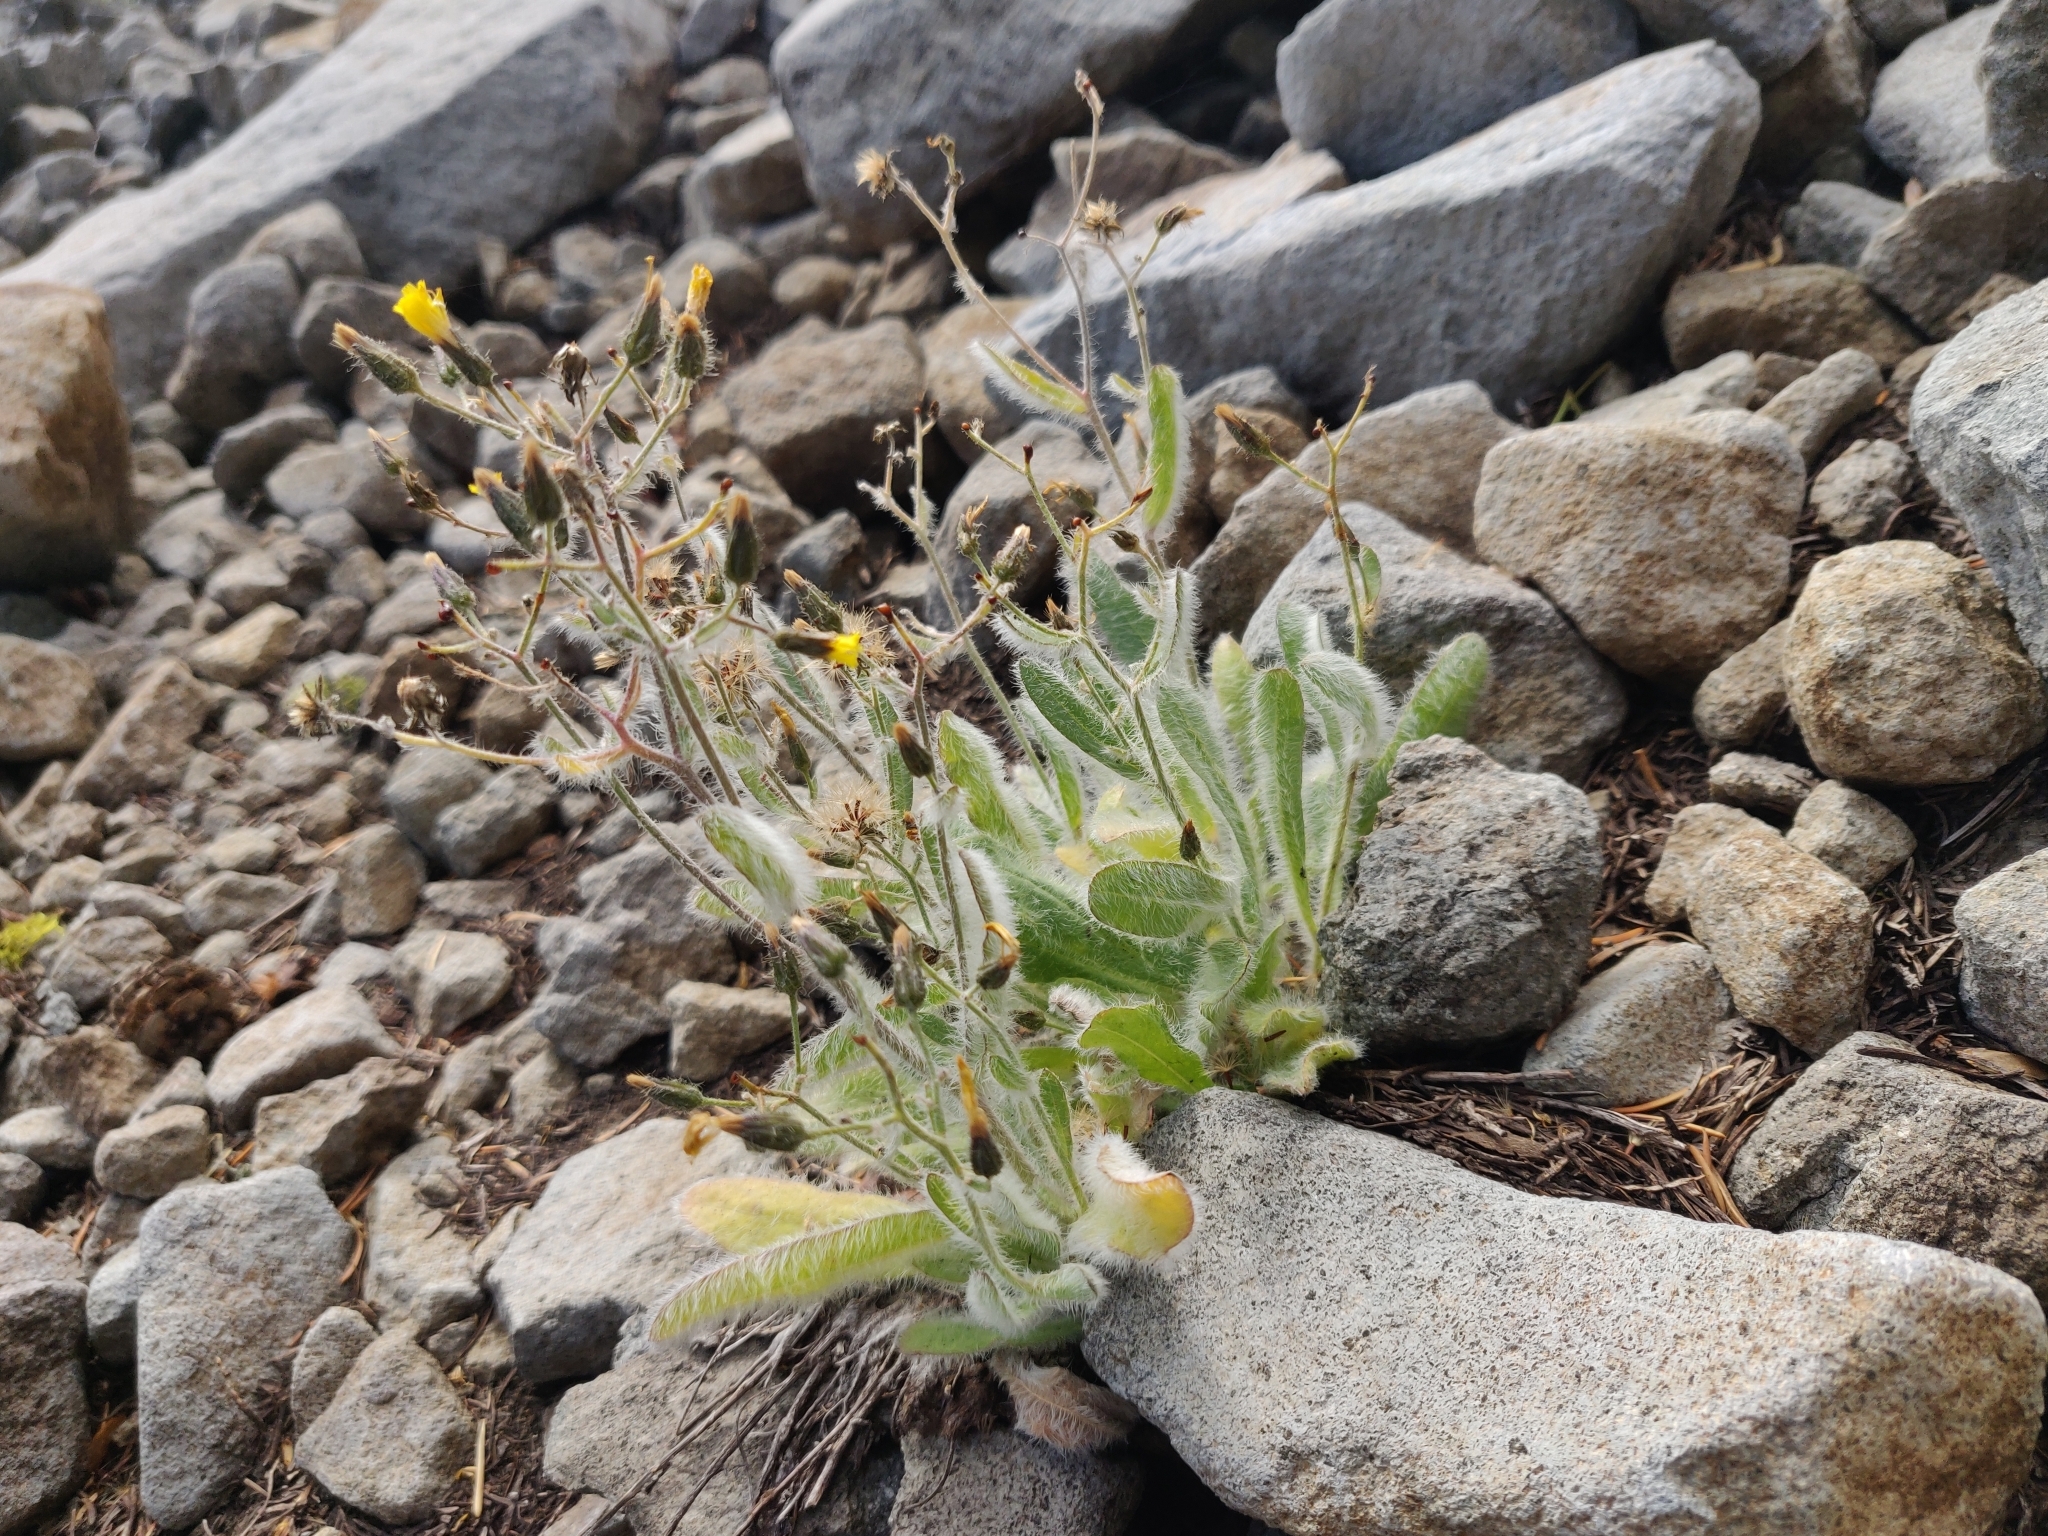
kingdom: Plantae
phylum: Tracheophyta
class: Magnoliopsida
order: Asterales
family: Asteraceae
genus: Hieracium
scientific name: Hieracium horridum
